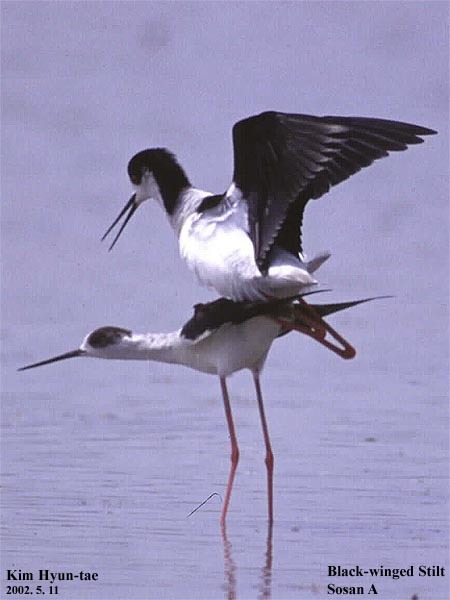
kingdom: Animalia
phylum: Chordata
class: Aves
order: Charadriiformes
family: Recurvirostridae
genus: Himantopus
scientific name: Himantopus himantopus
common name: Black-winged stilt
